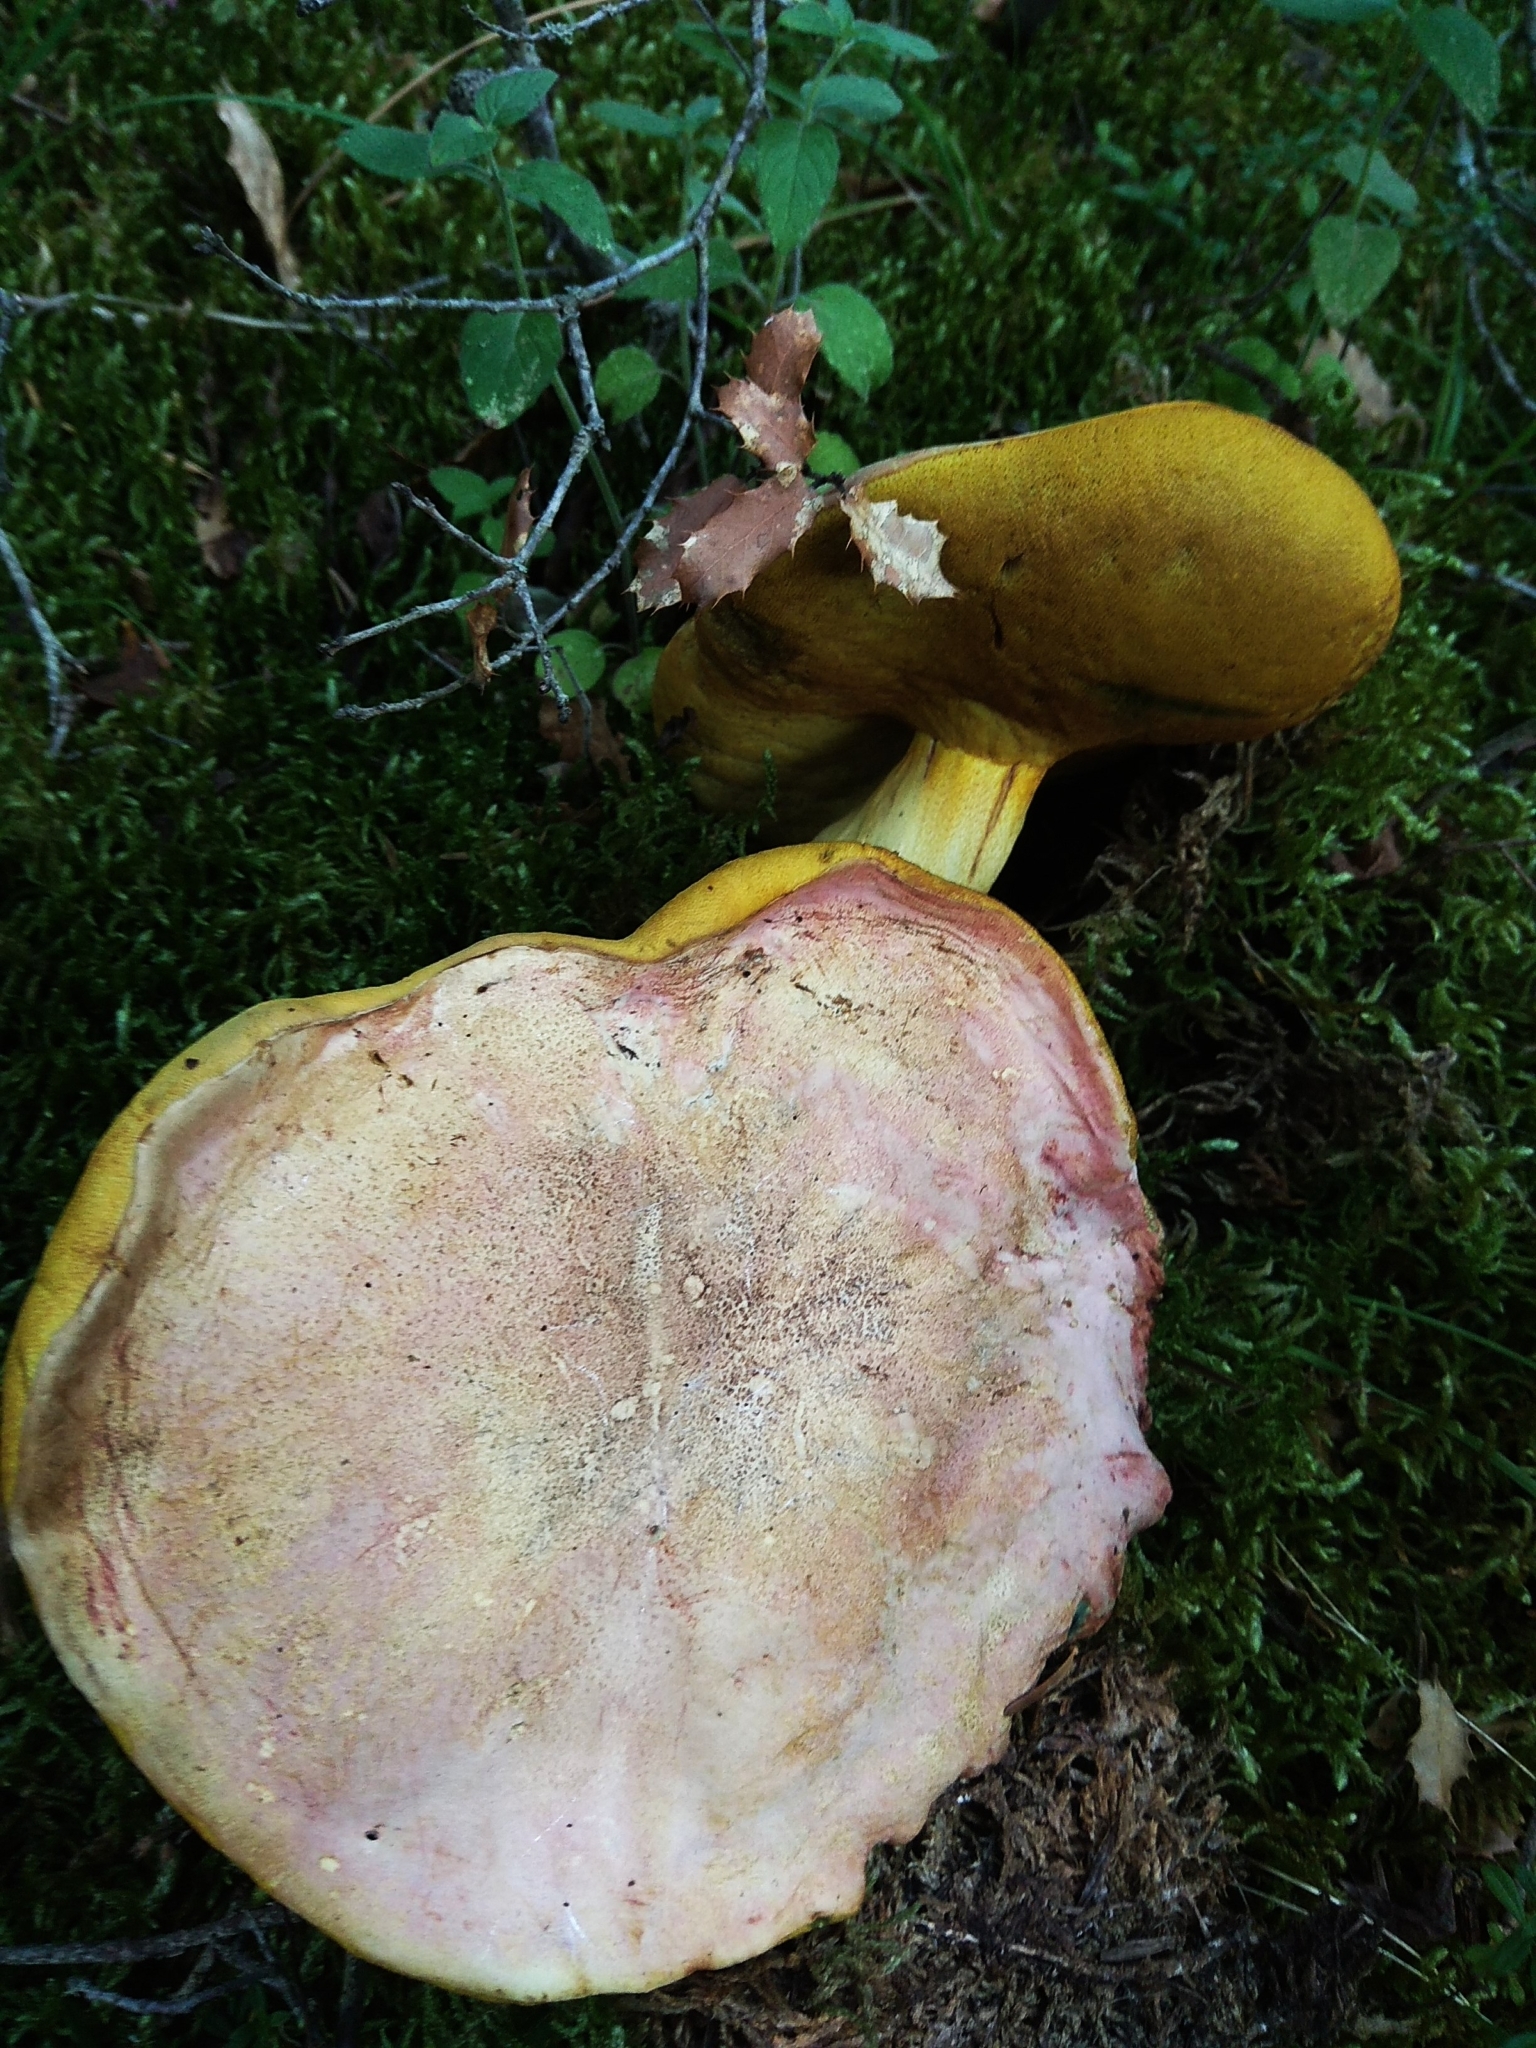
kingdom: Fungi
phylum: Basidiomycota
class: Agaricomycetes
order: Boletales
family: Boletaceae
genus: Butyriboletus
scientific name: Butyriboletus fuscoroseus
